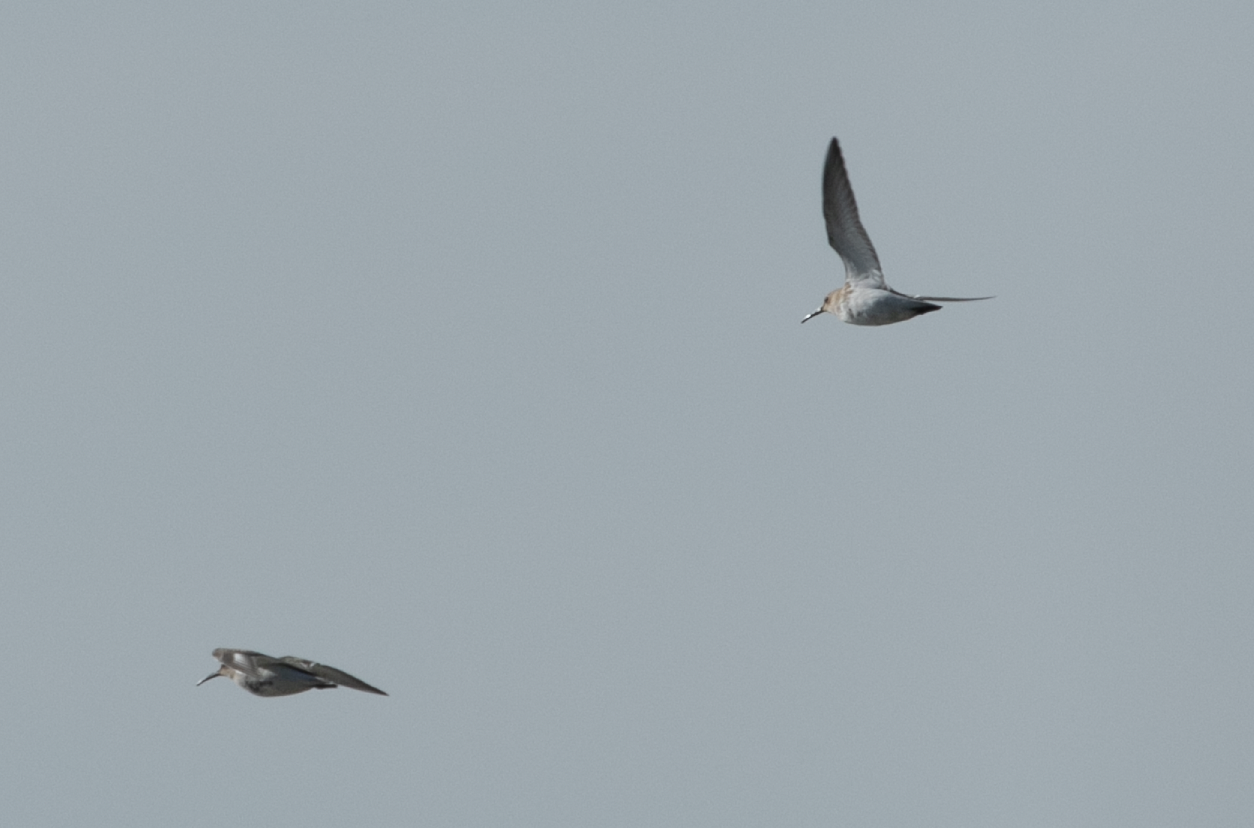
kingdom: Animalia
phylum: Chordata
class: Aves
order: Charadriiformes
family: Scolopacidae
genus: Calidris
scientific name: Calidris alpina
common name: Dunlin
